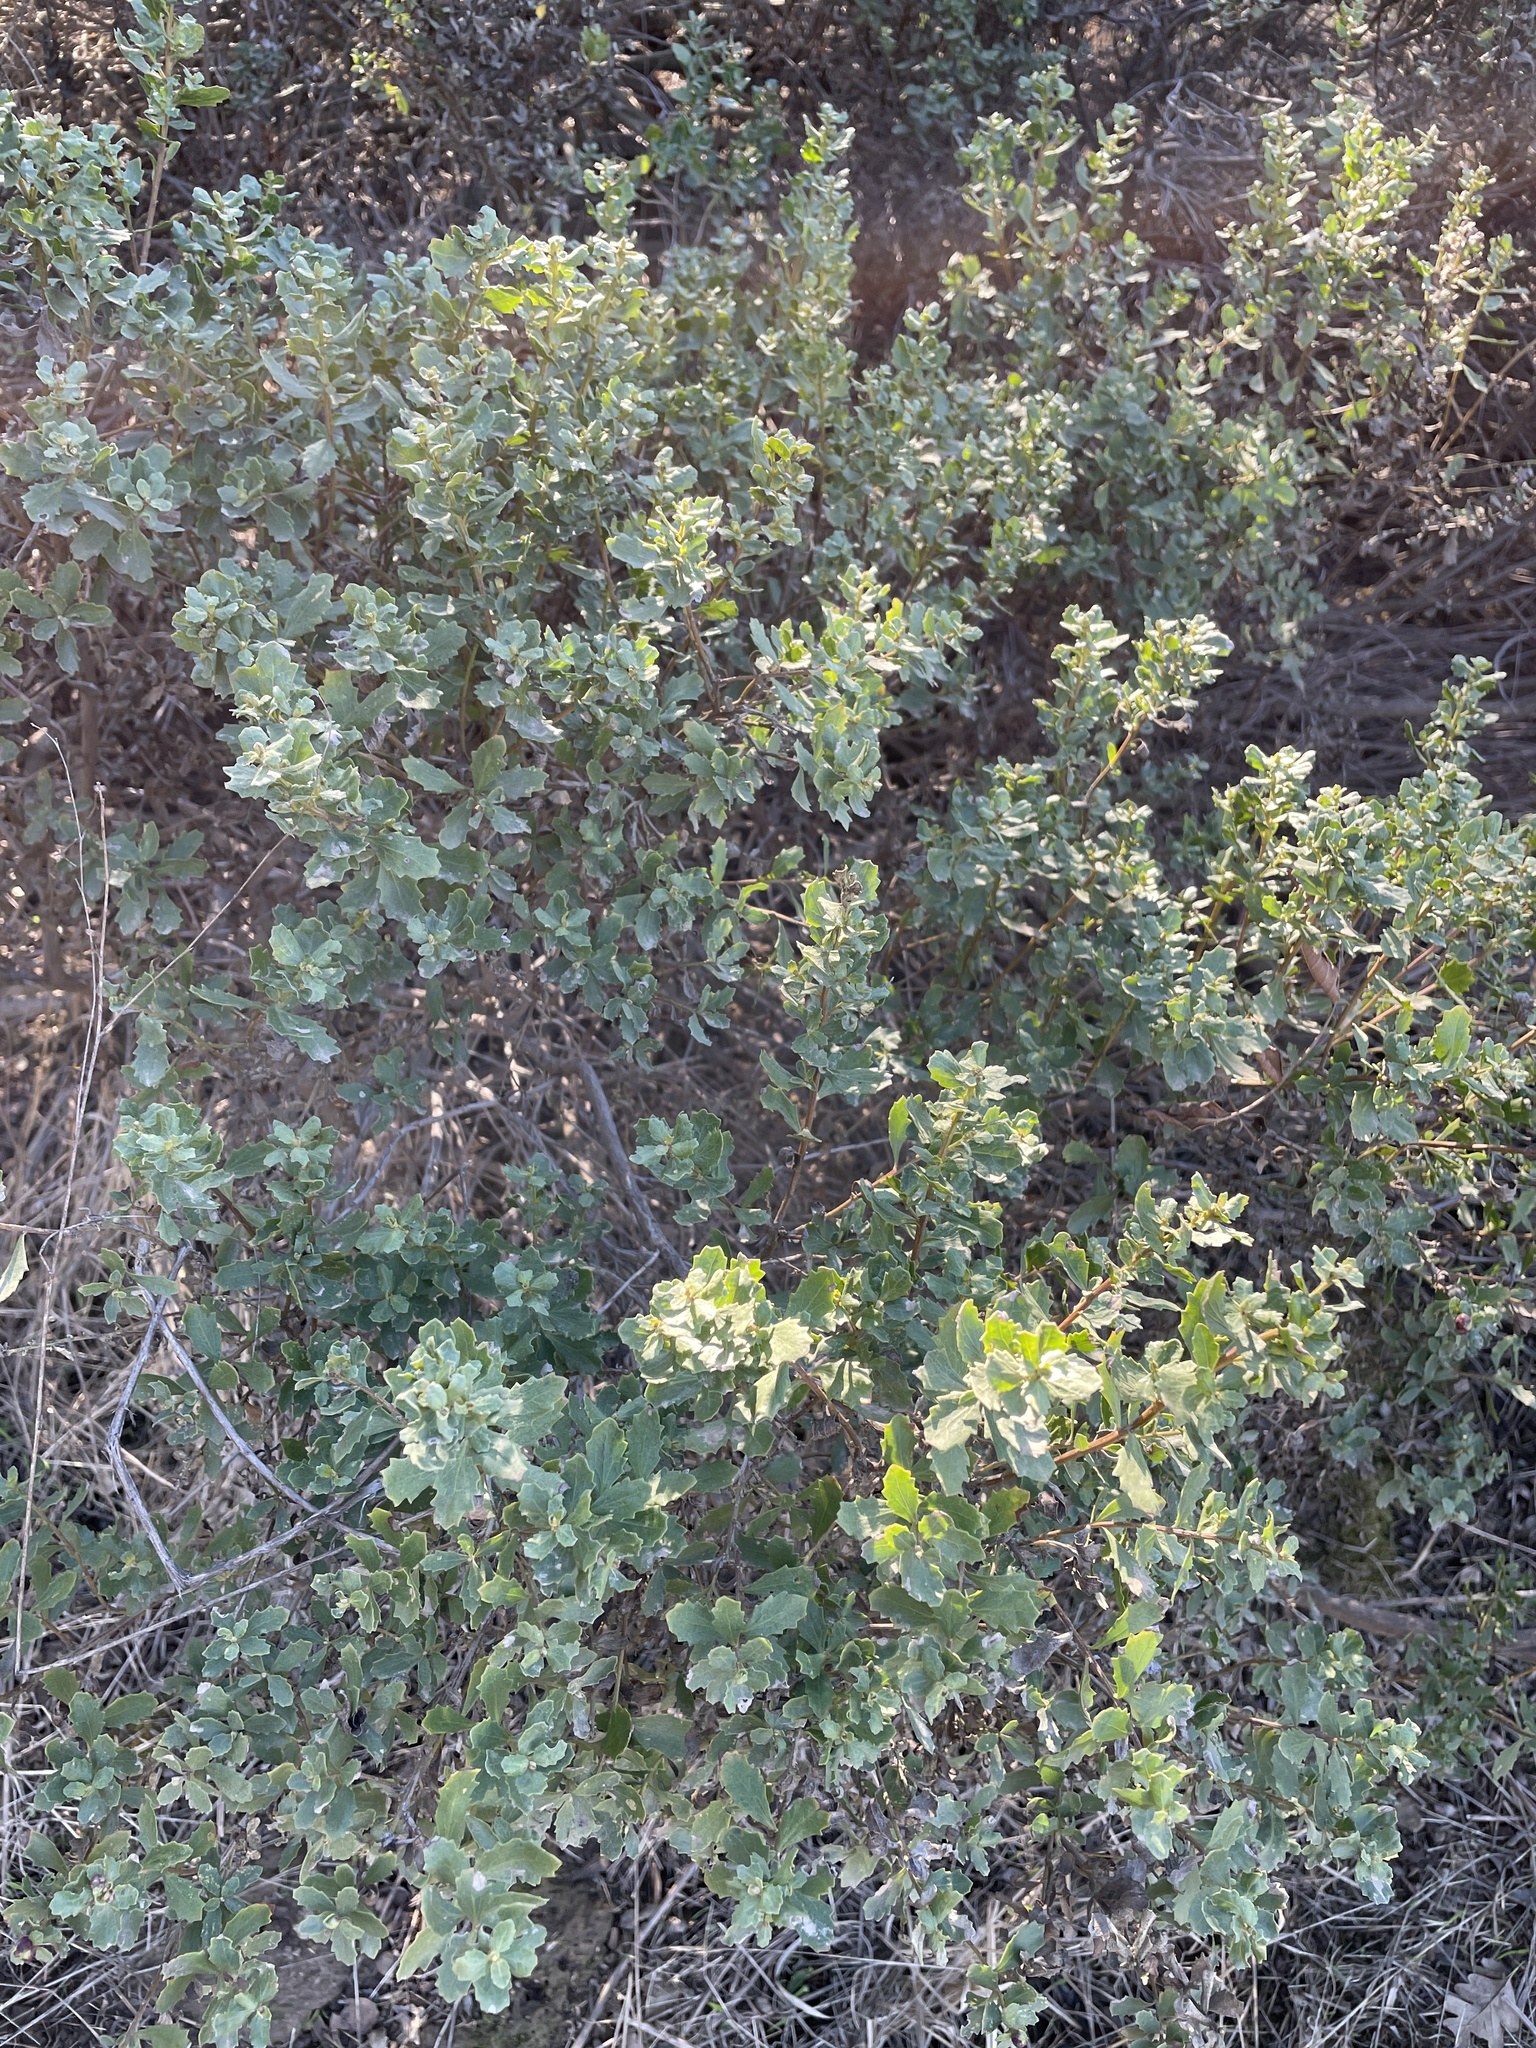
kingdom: Plantae
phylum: Tracheophyta
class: Magnoliopsida
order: Asterales
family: Asteraceae
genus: Baccharis
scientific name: Baccharis pilularis
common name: Coyotebrush
